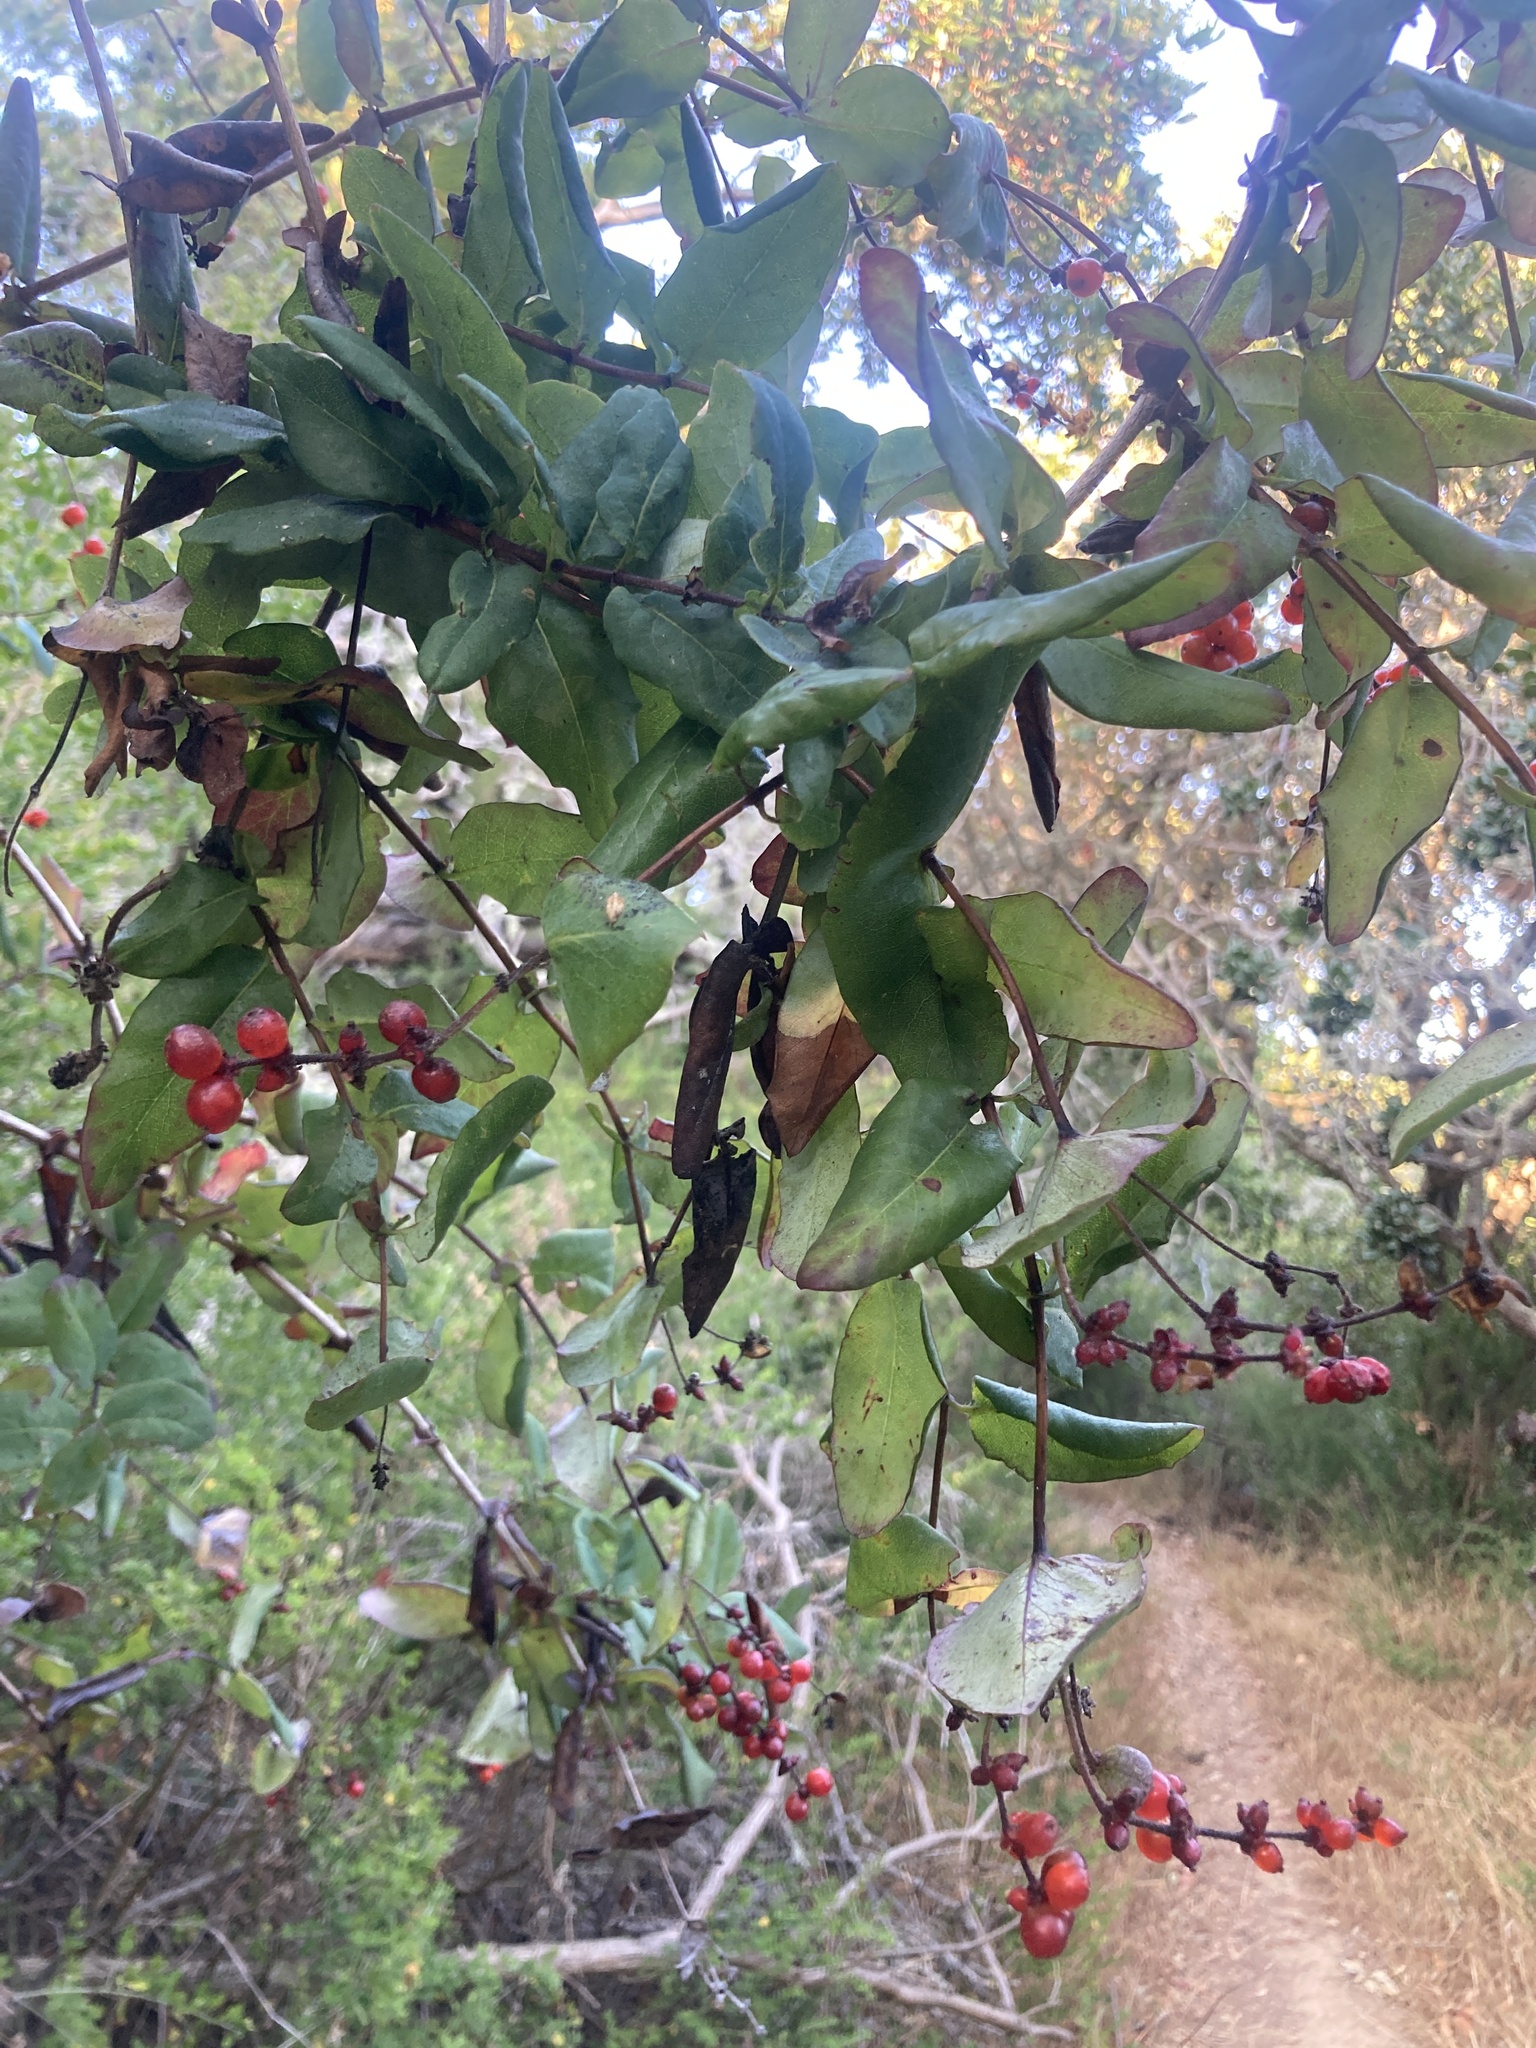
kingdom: Plantae
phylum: Tracheophyta
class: Magnoliopsida
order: Dipsacales
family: Caprifoliaceae
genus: Lonicera
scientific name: Lonicera hispidula
